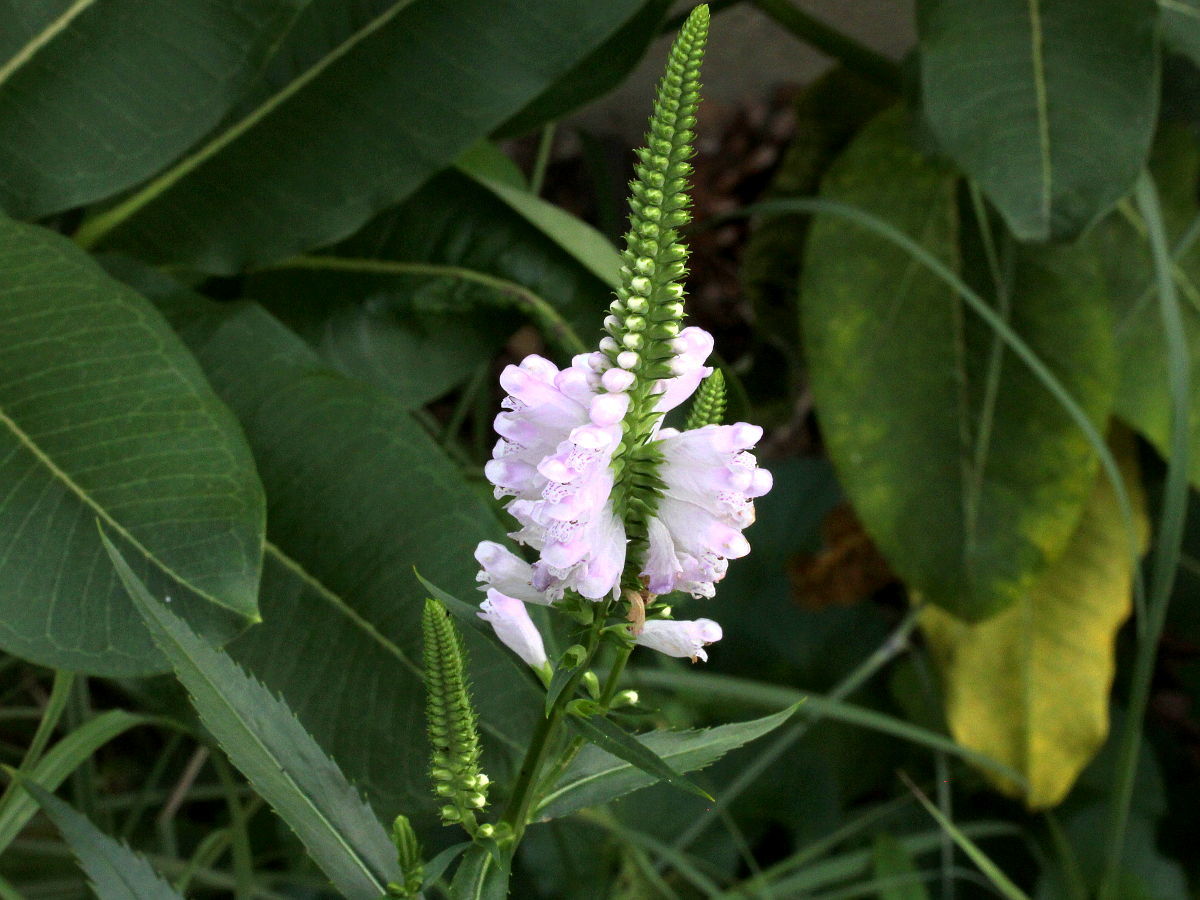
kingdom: Plantae
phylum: Tracheophyta
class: Magnoliopsida
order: Lamiales
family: Lamiaceae
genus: Physostegia
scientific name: Physostegia virginiana
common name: Obedient-plant
